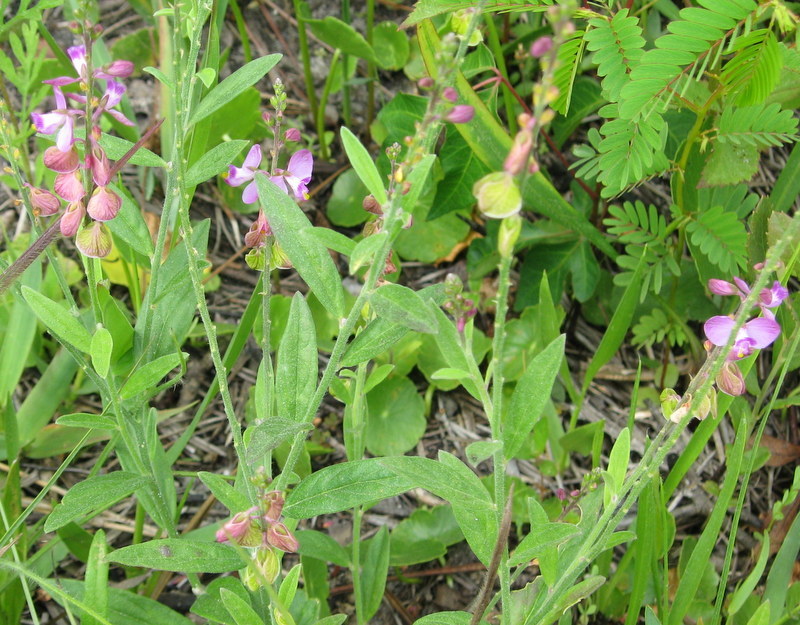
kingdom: Plantae
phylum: Tracheophyta
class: Magnoliopsida
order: Fabales
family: Polygalaceae
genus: Asemeia
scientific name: Asemeia grandiflora
